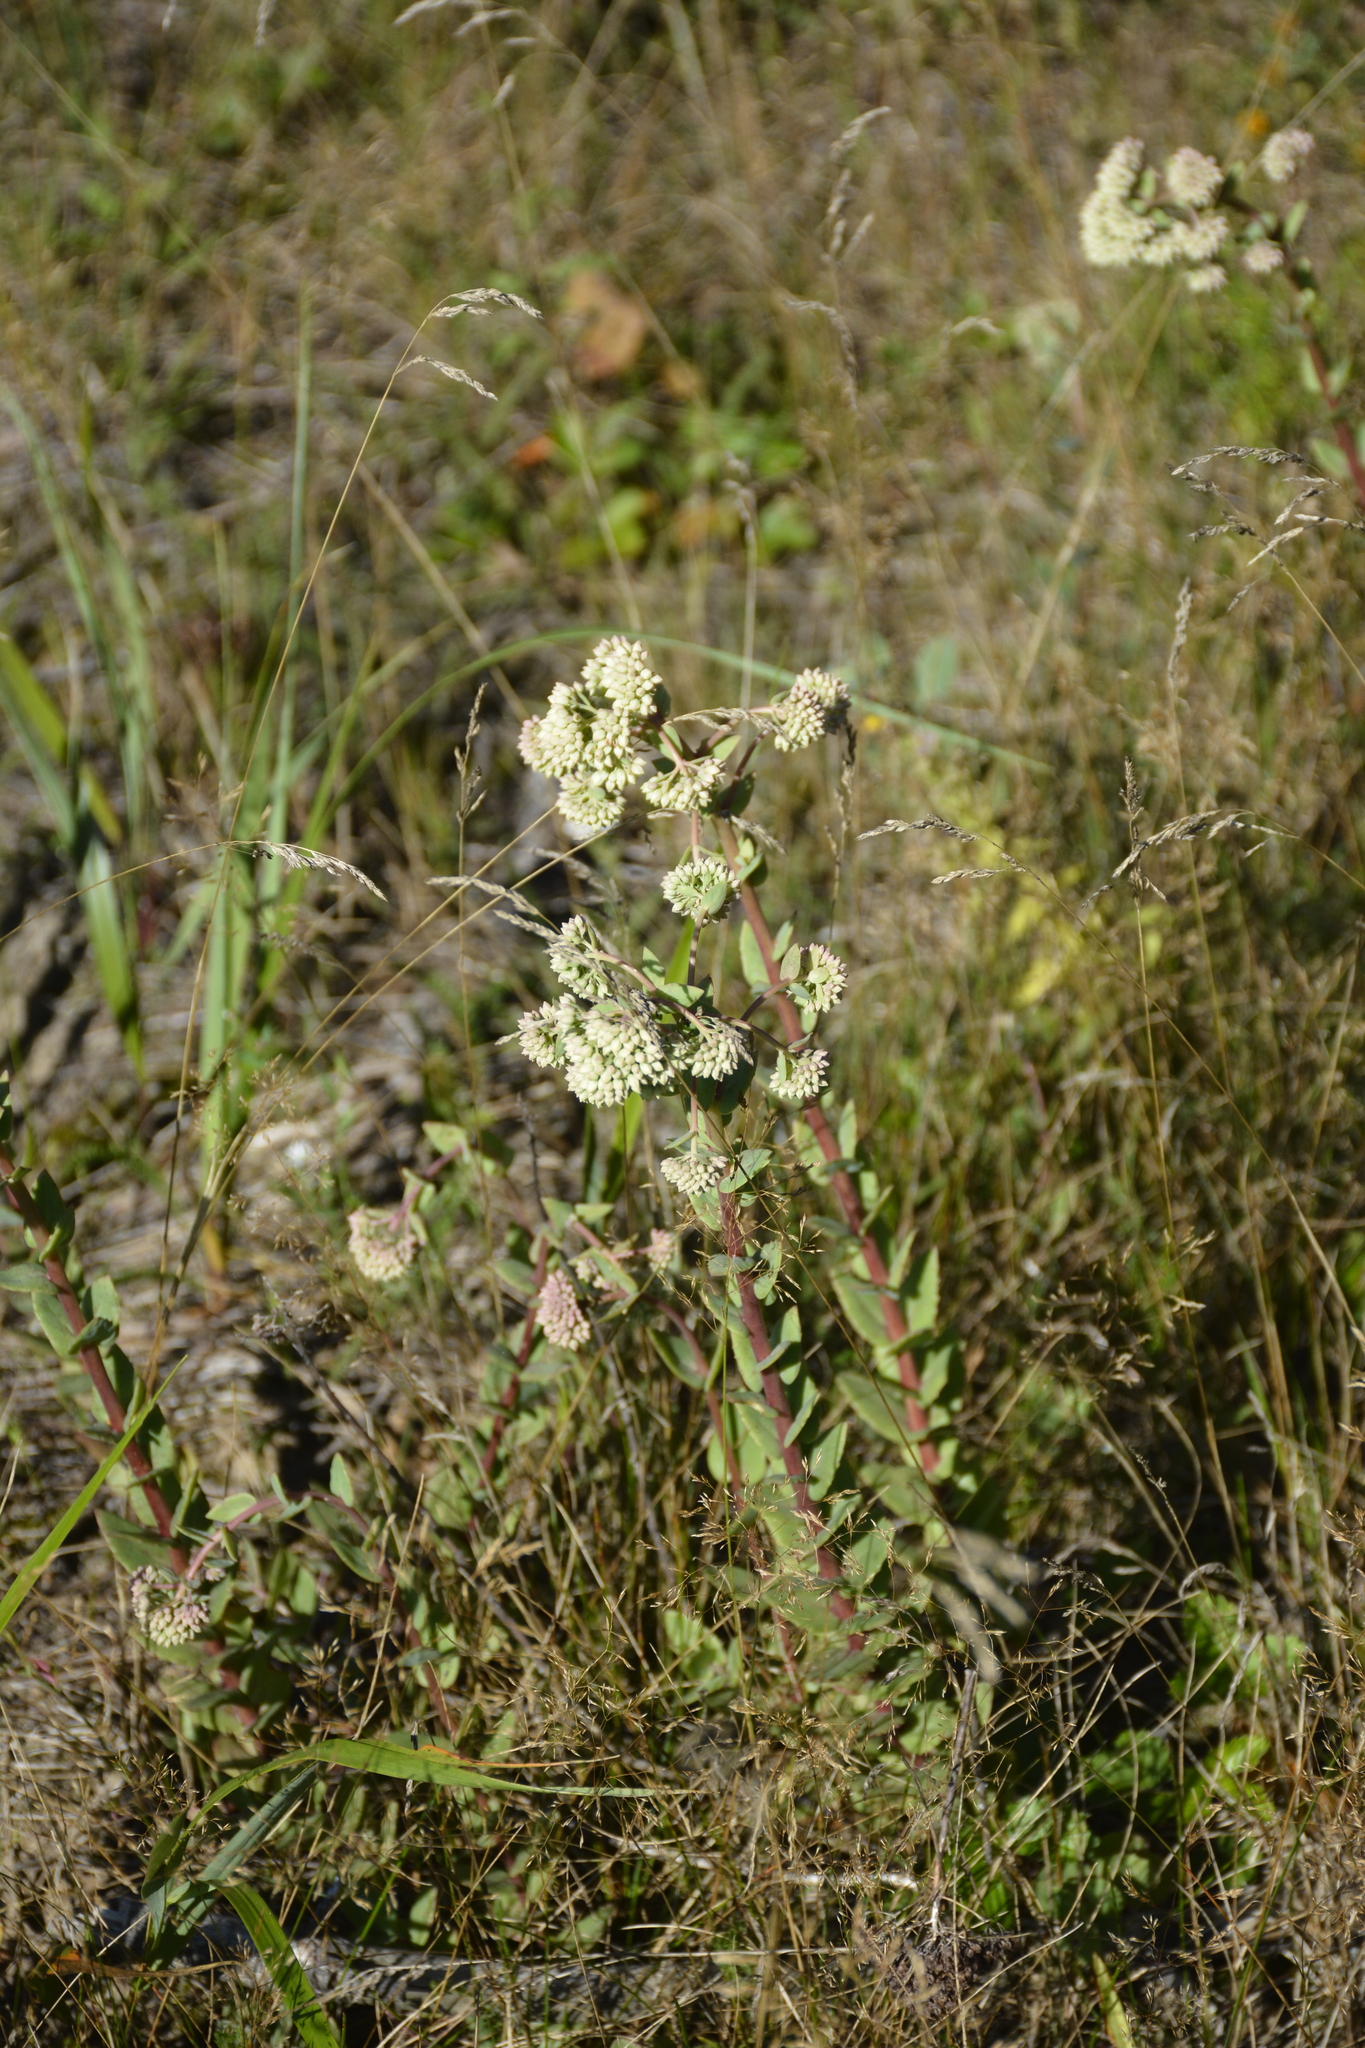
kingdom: Plantae
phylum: Tracheophyta
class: Magnoliopsida
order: Saxifragales
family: Crassulaceae
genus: Hylotelephium
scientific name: Hylotelephium maximum
